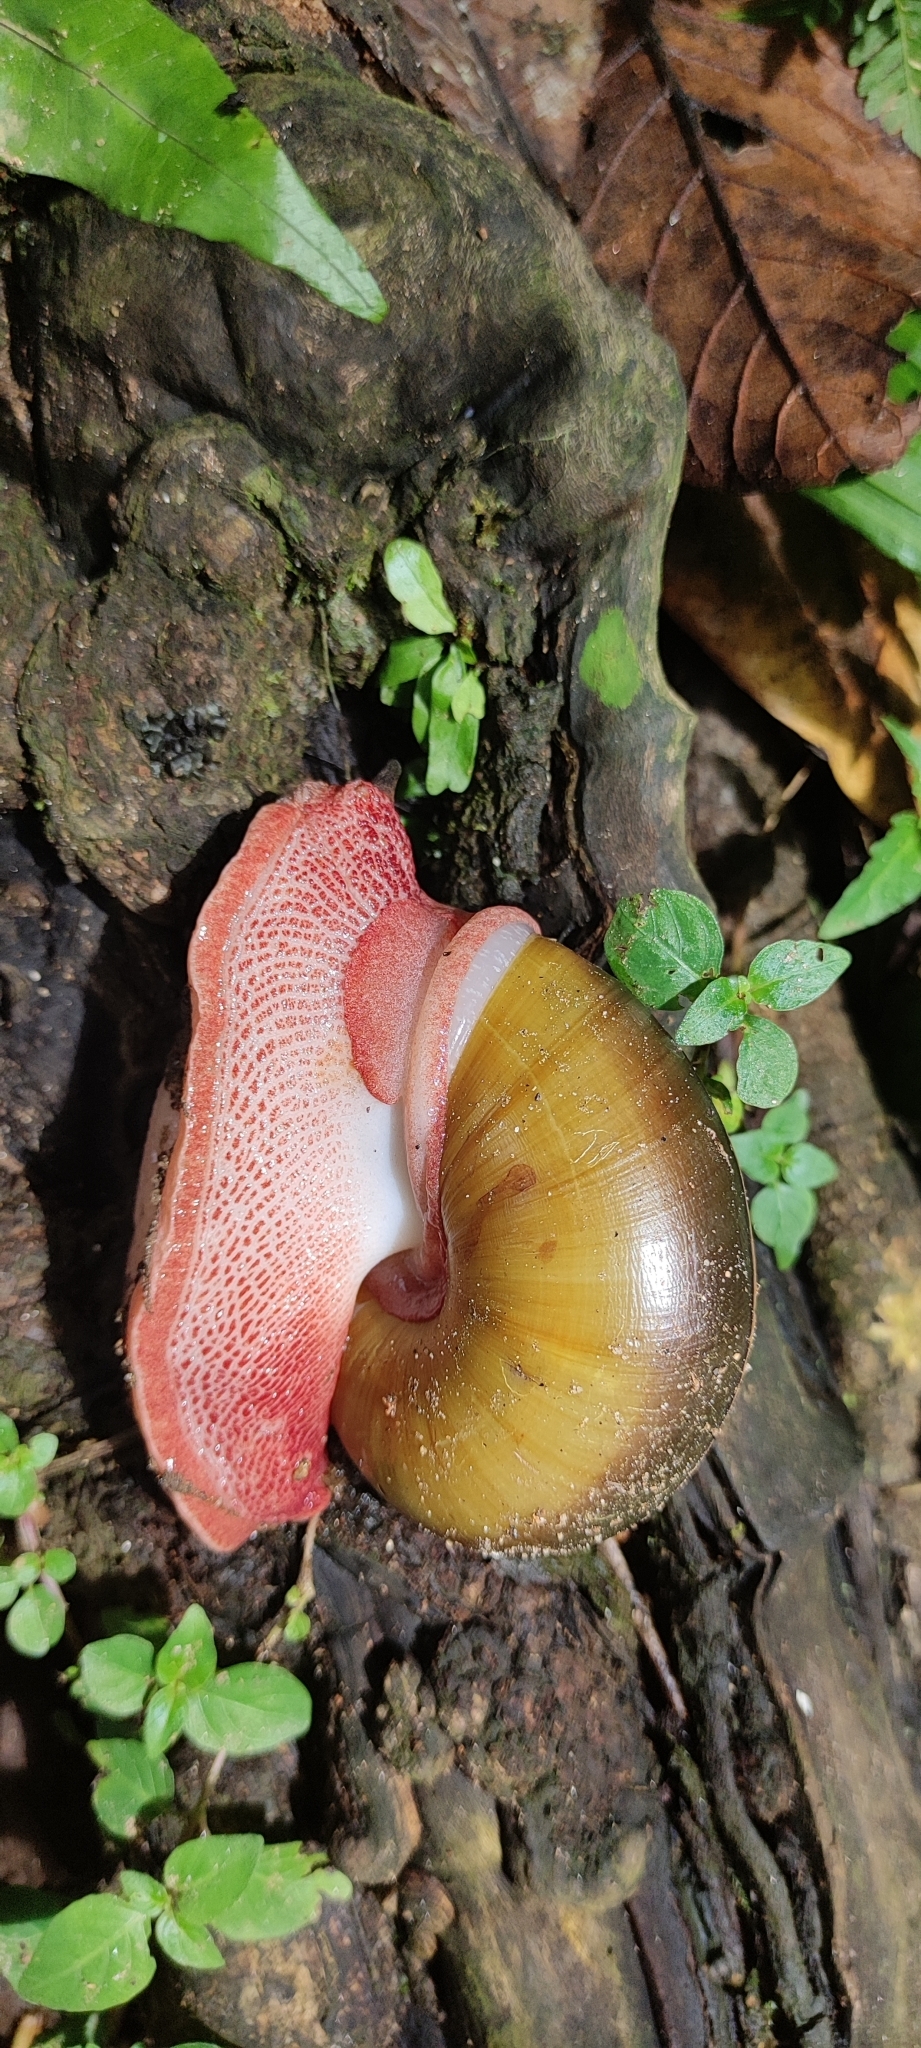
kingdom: Animalia
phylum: Mollusca
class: Gastropoda
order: Stylommatophora
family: Ariophantidae
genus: Indrella
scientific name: Indrella ampulla
